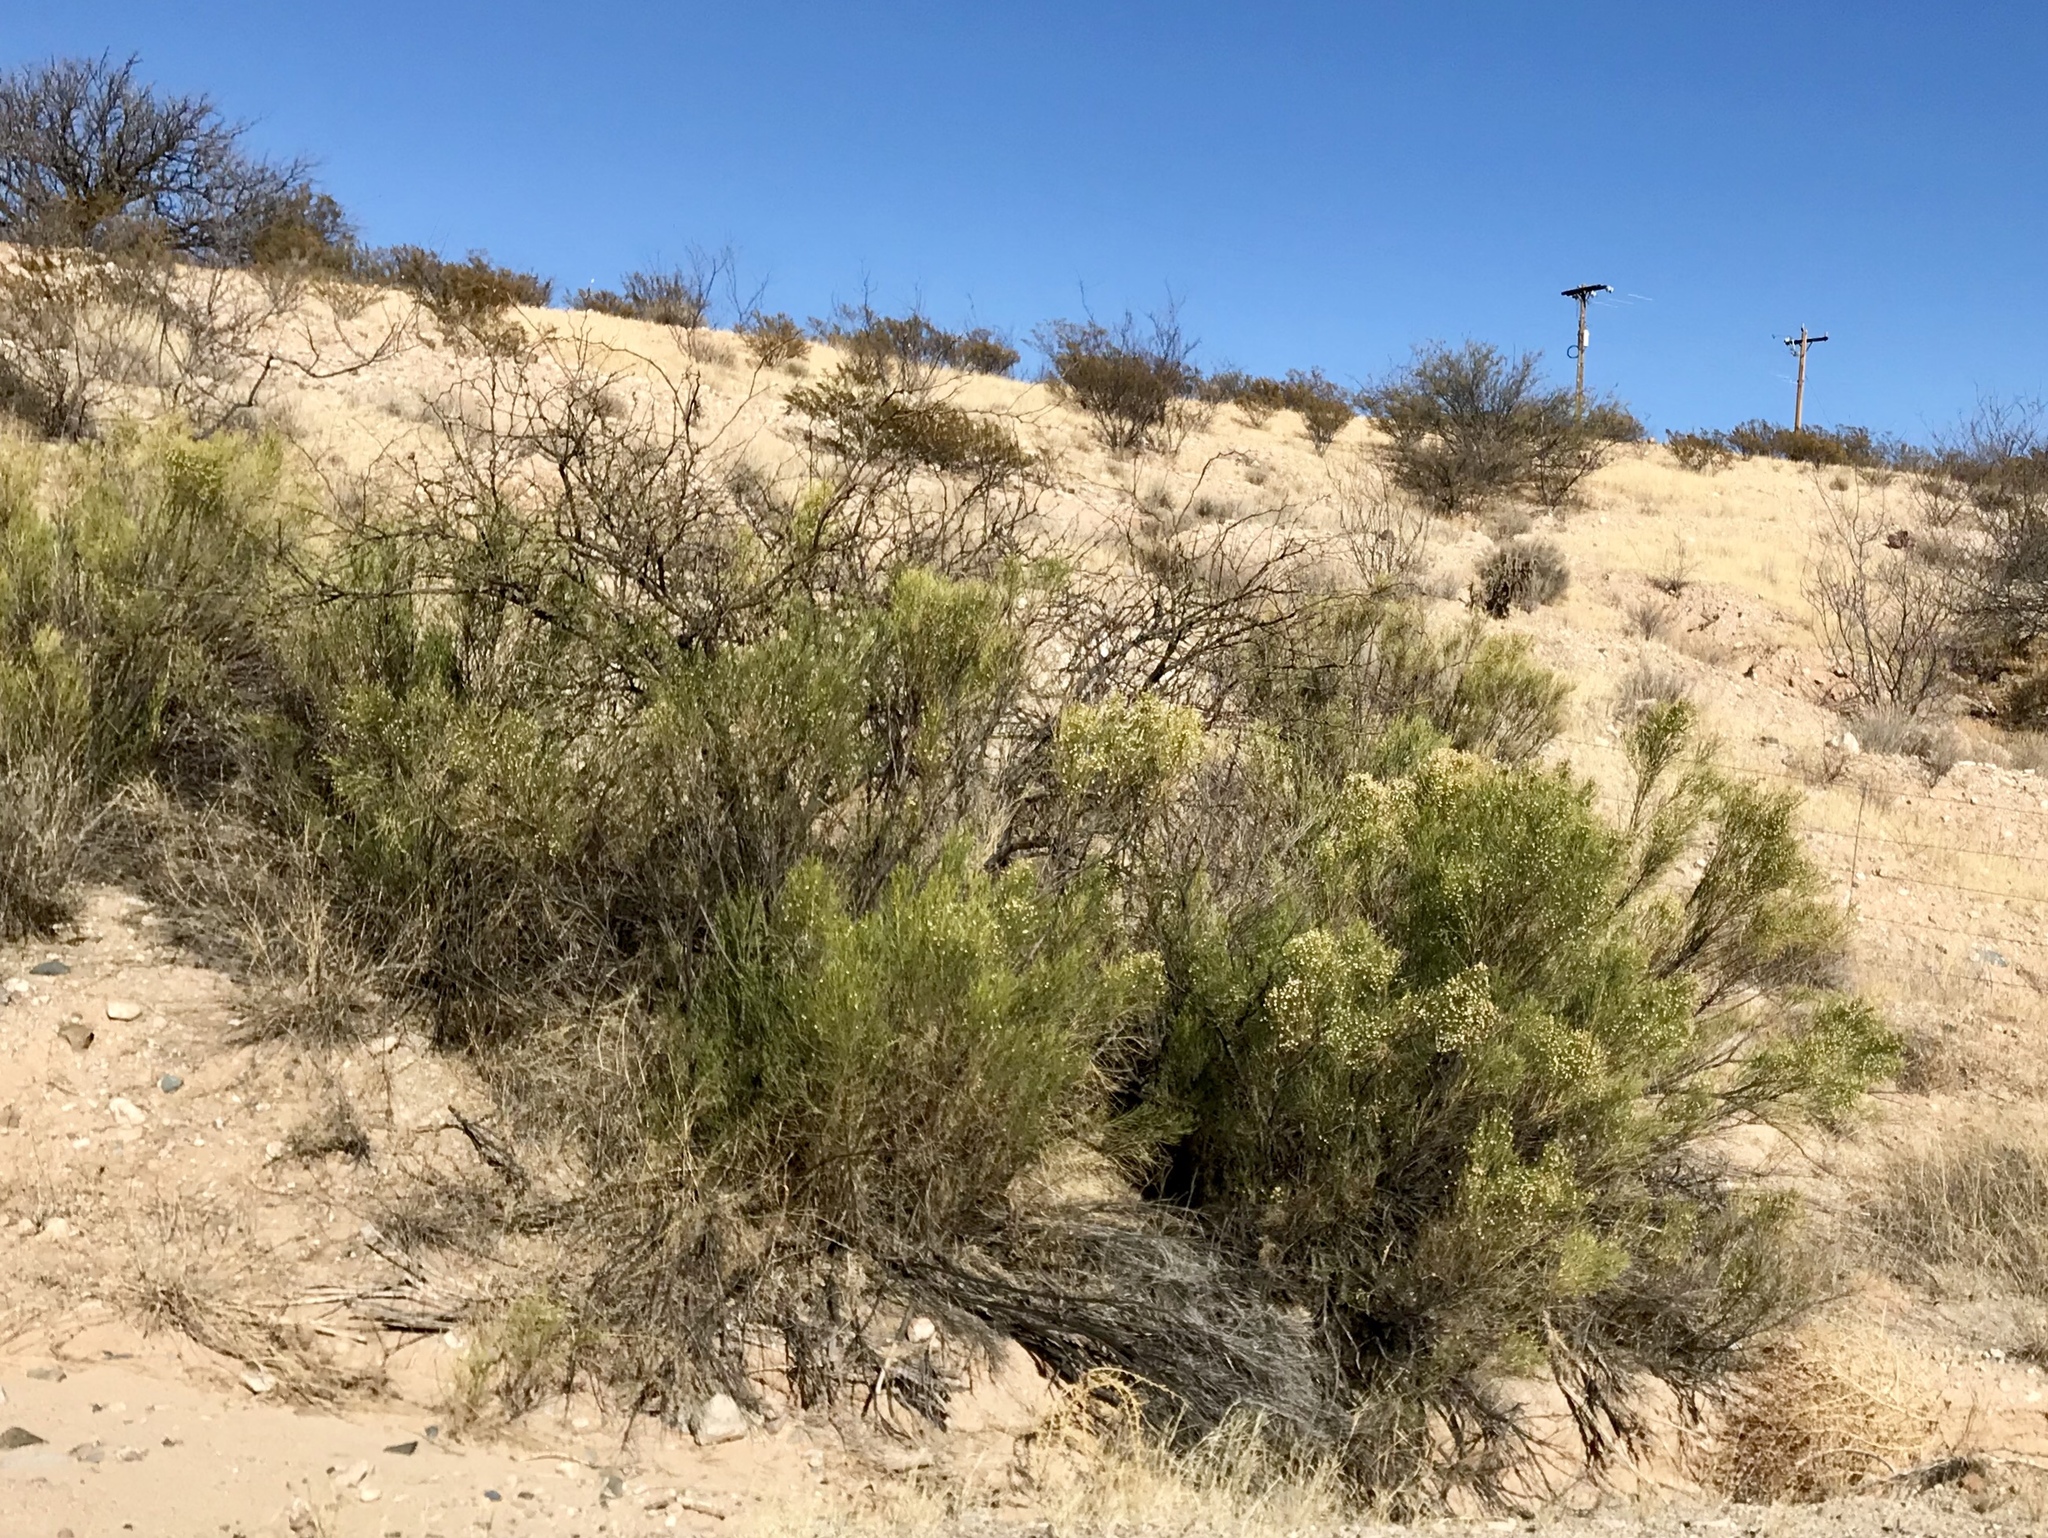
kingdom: Plantae
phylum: Tracheophyta
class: Magnoliopsida
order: Asterales
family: Asteraceae
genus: Baccharis
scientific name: Baccharis sarothroides
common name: Desert-broom
